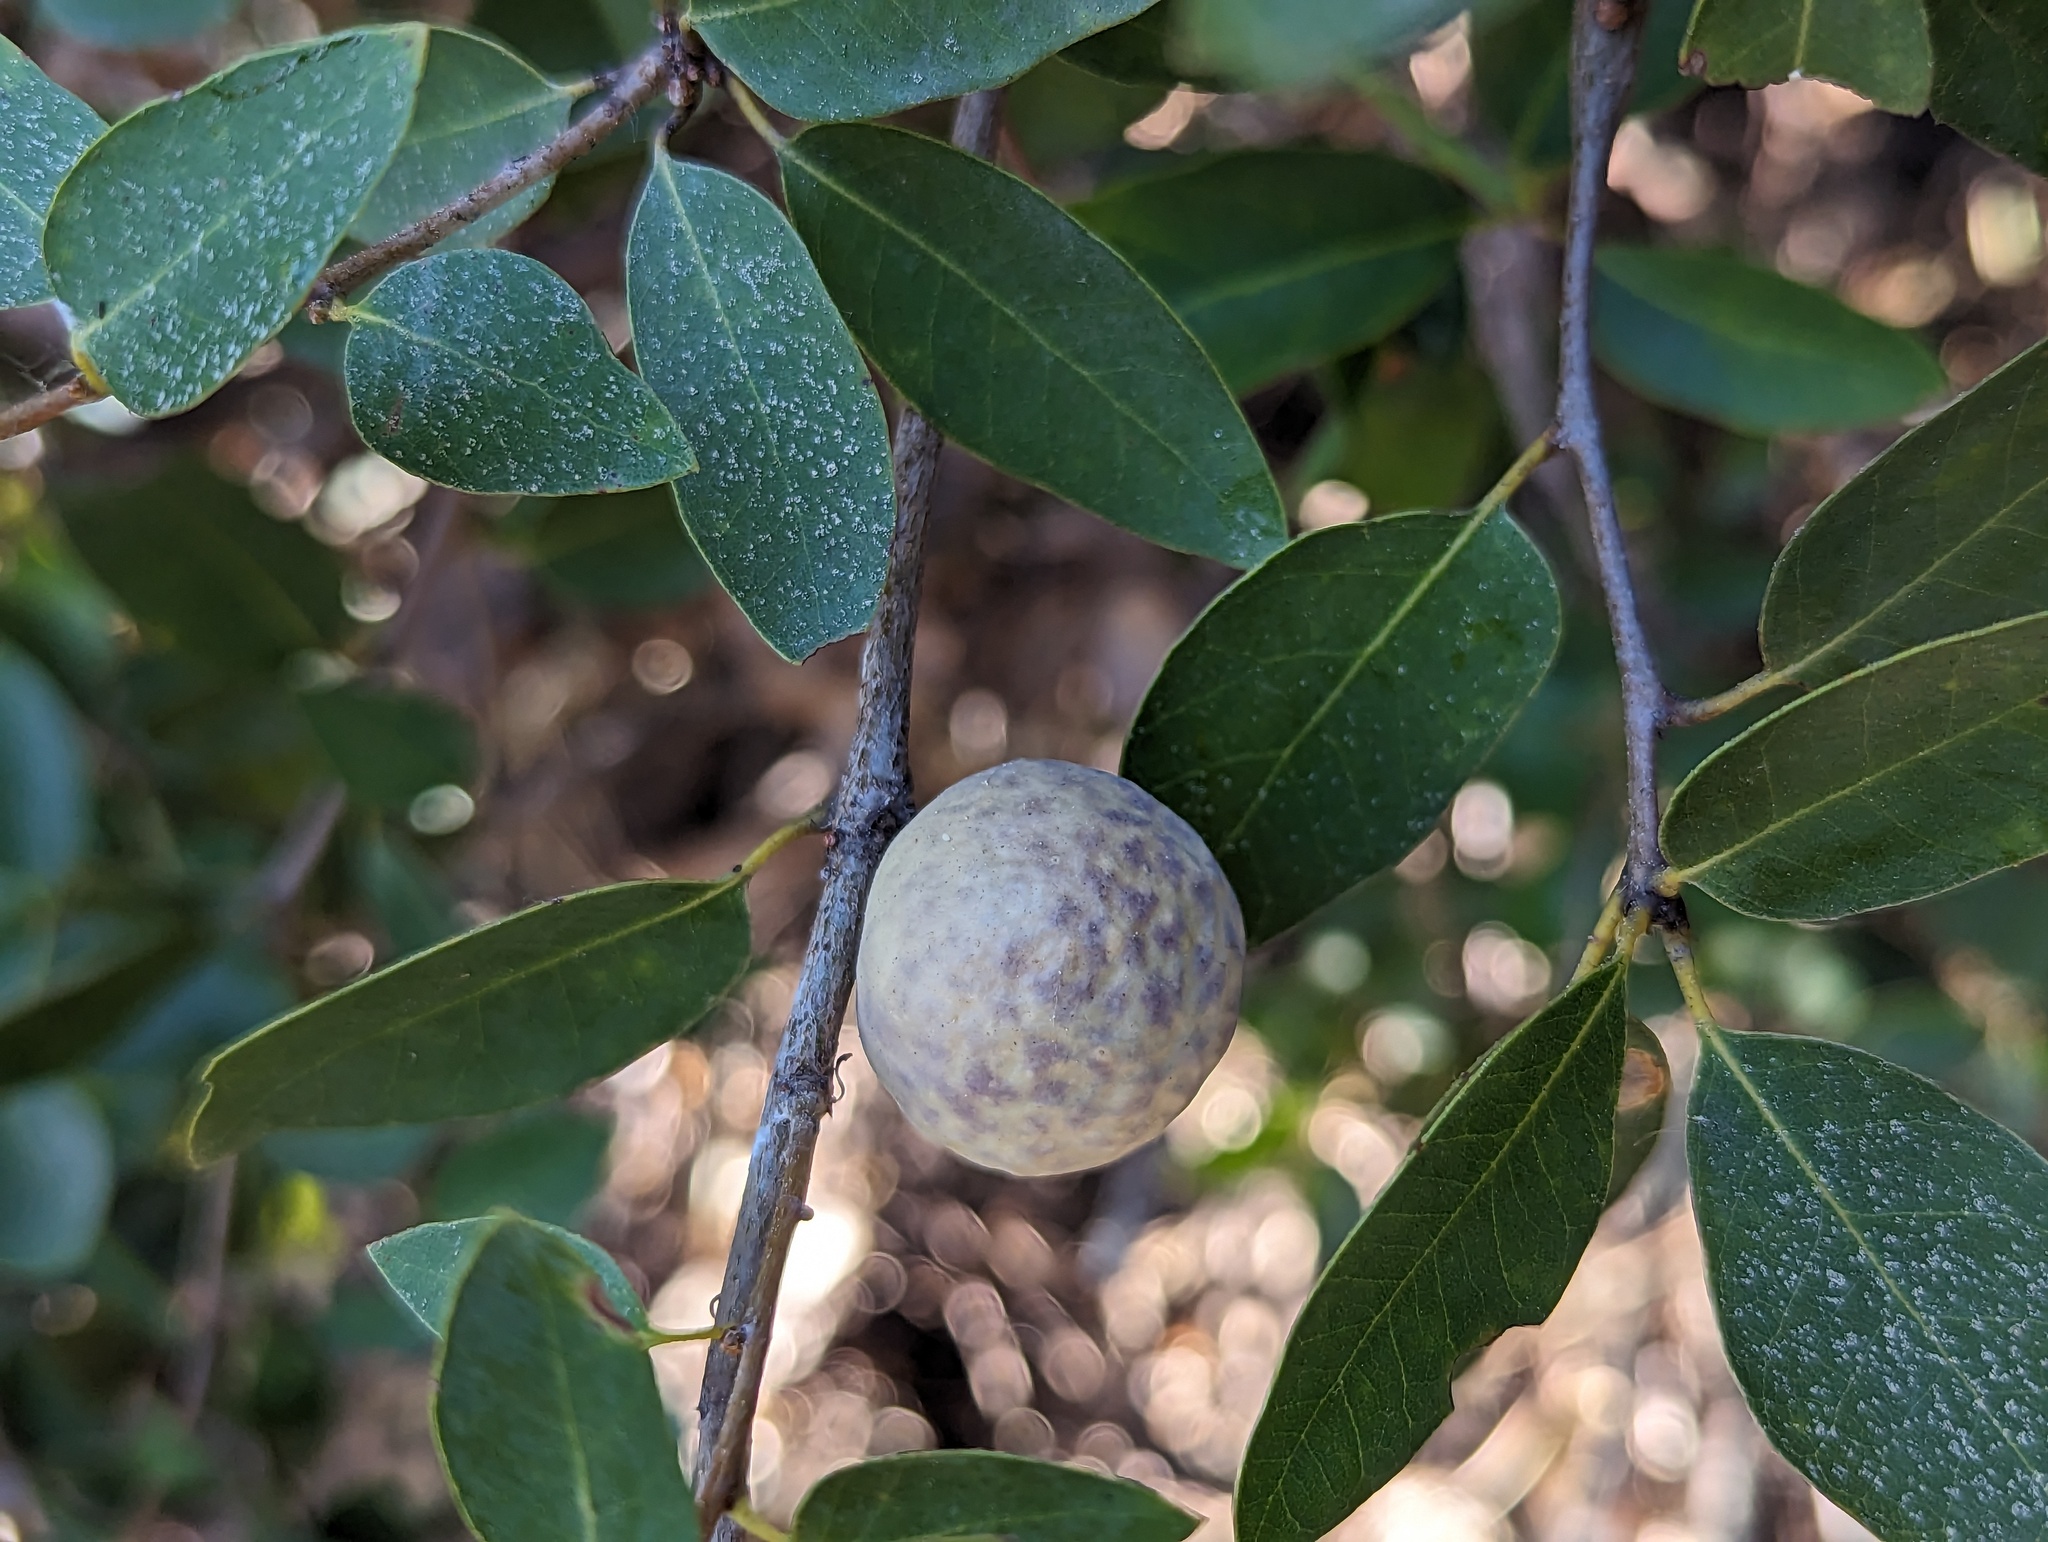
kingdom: Animalia
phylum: Arthropoda
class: Insecta
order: Hymenoptera
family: Cynipidae
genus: Andricus
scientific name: Andricus
